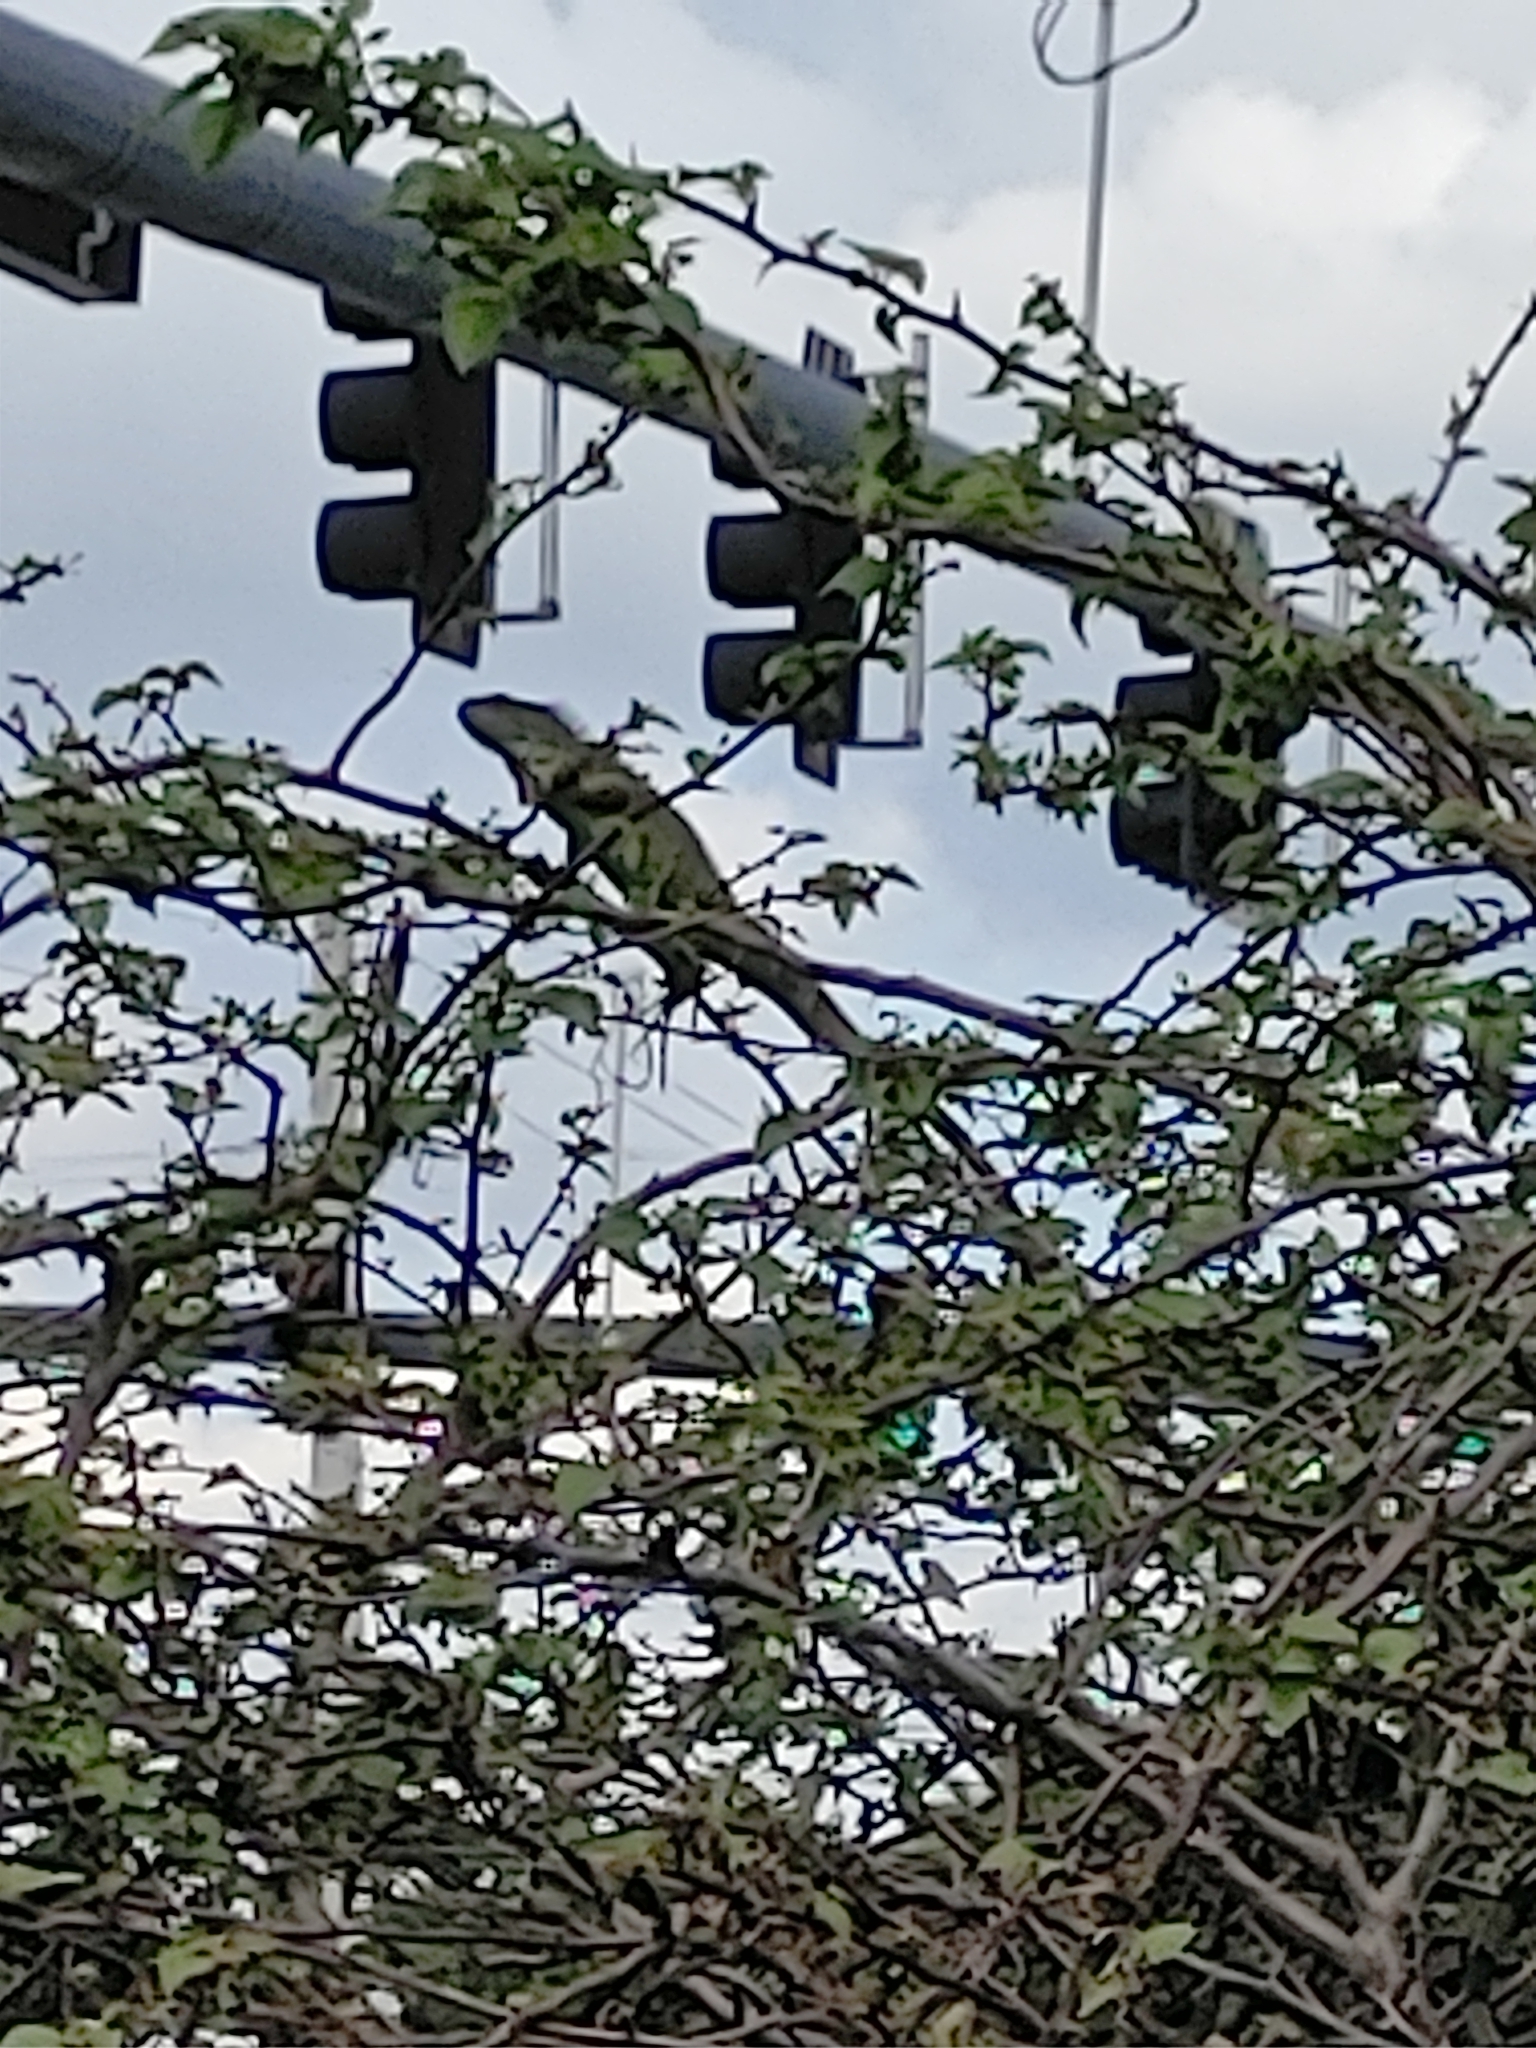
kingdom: Animalia
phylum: Chordata
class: Squamata
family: Iguanidae
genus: Iguana
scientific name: Iguana iguana
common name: Green iguana
